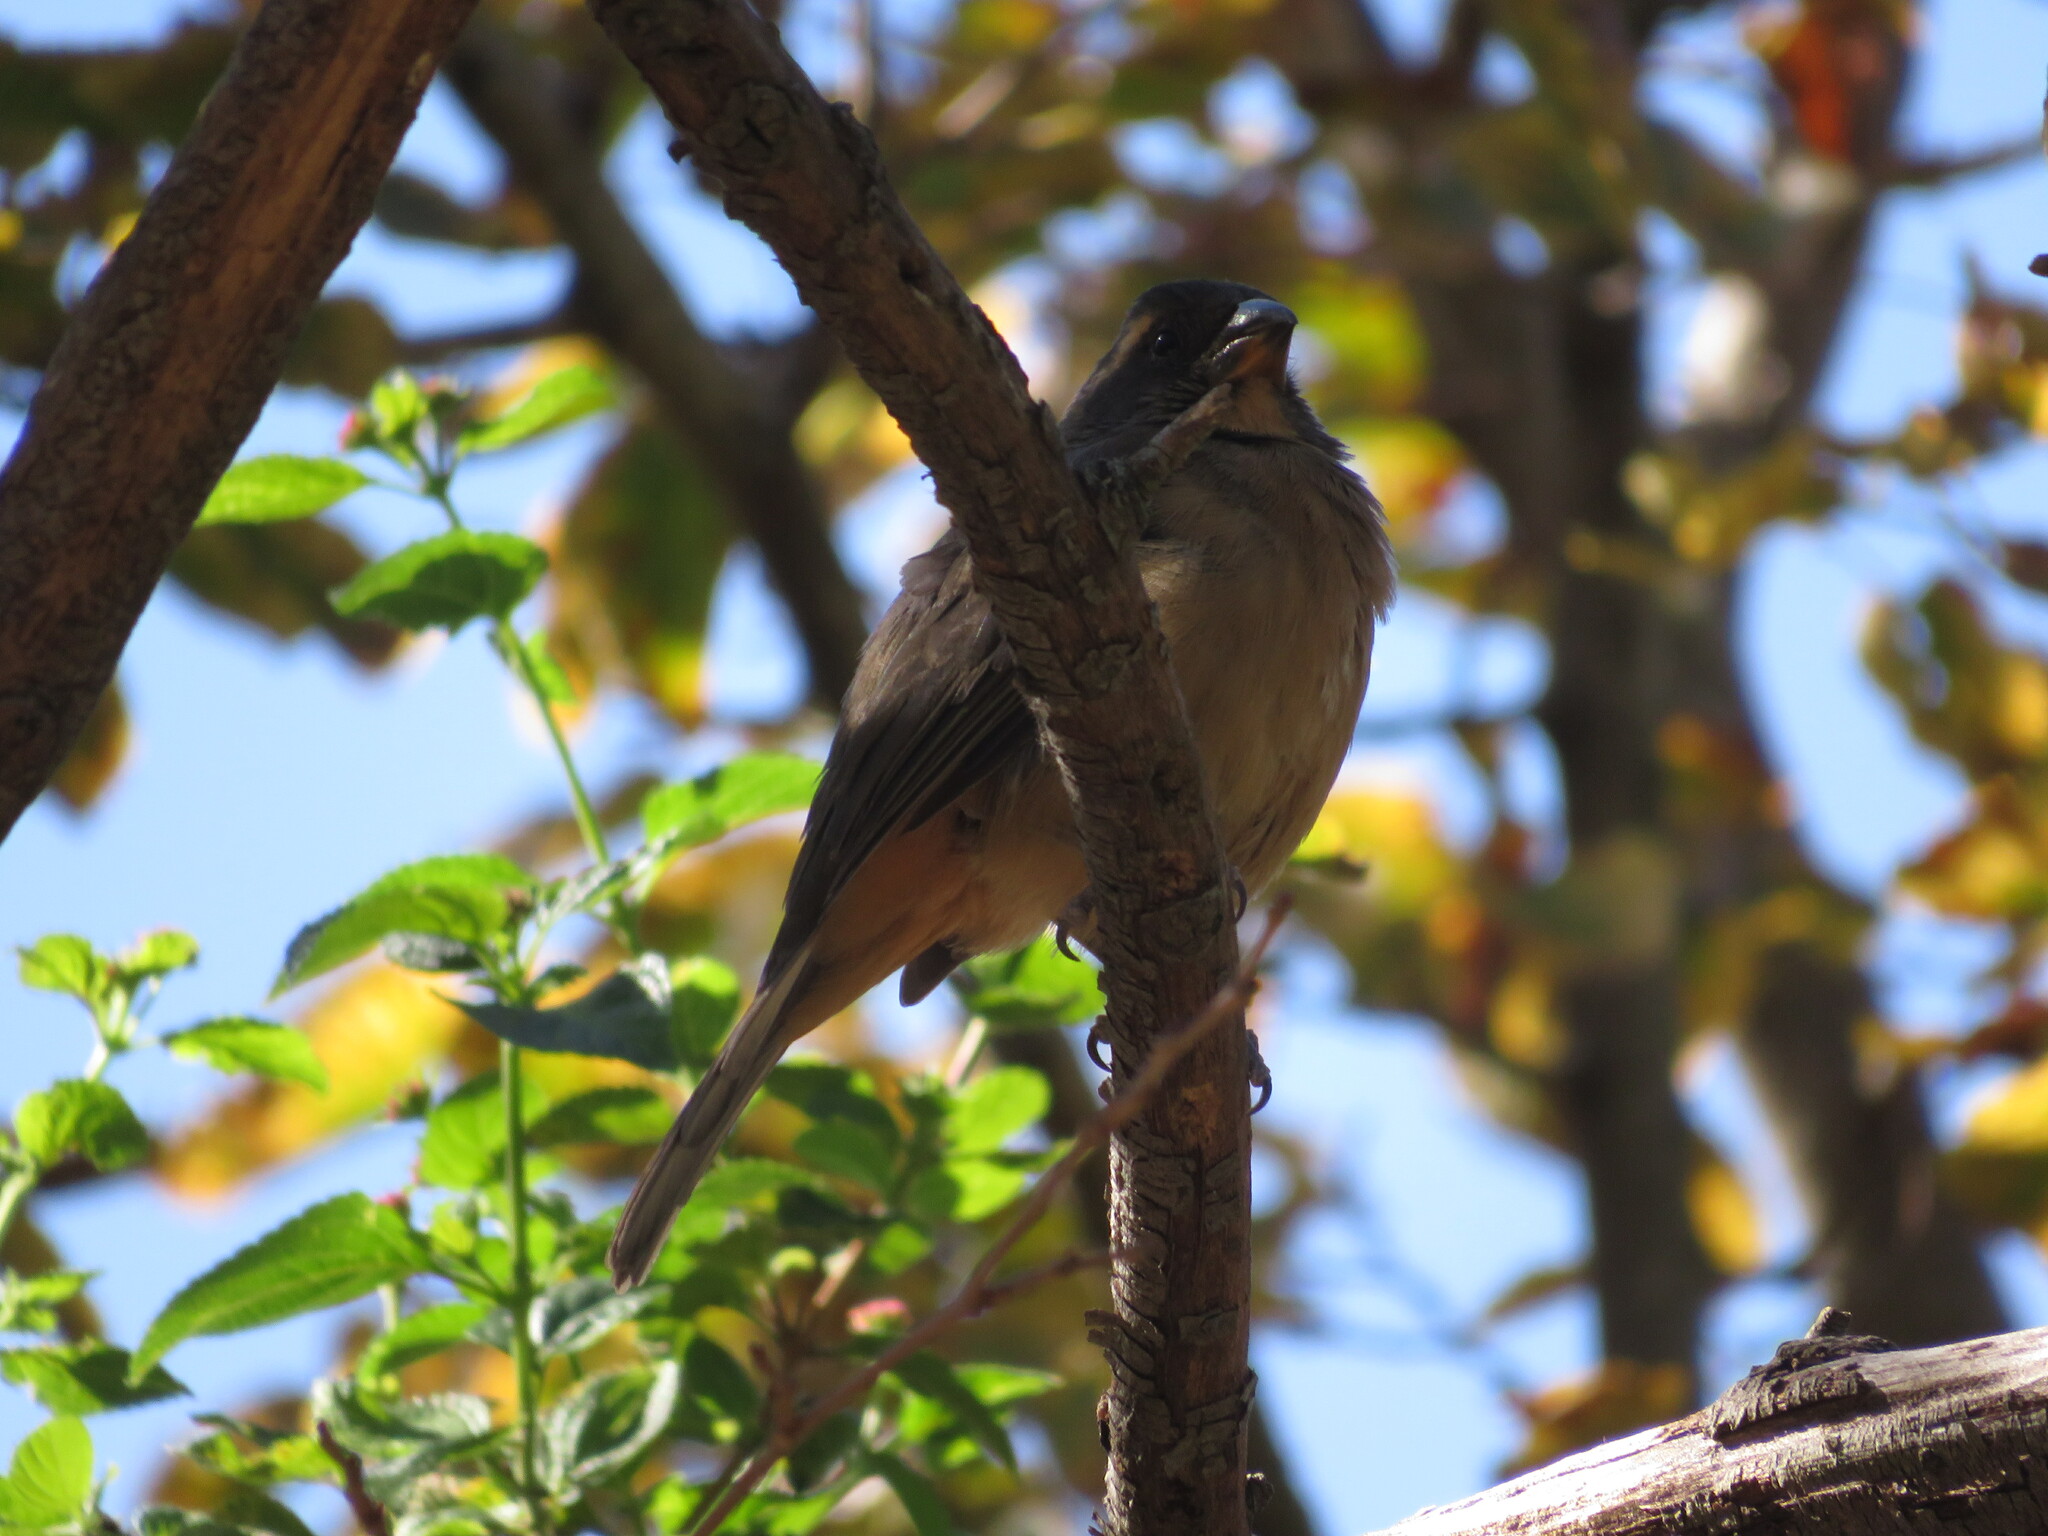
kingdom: Animalia
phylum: Chordata
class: Aves
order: Passeriformes
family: Thraupidae
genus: Saltator
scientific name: Saltator aurantiirostris
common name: Golden-billed saltator
